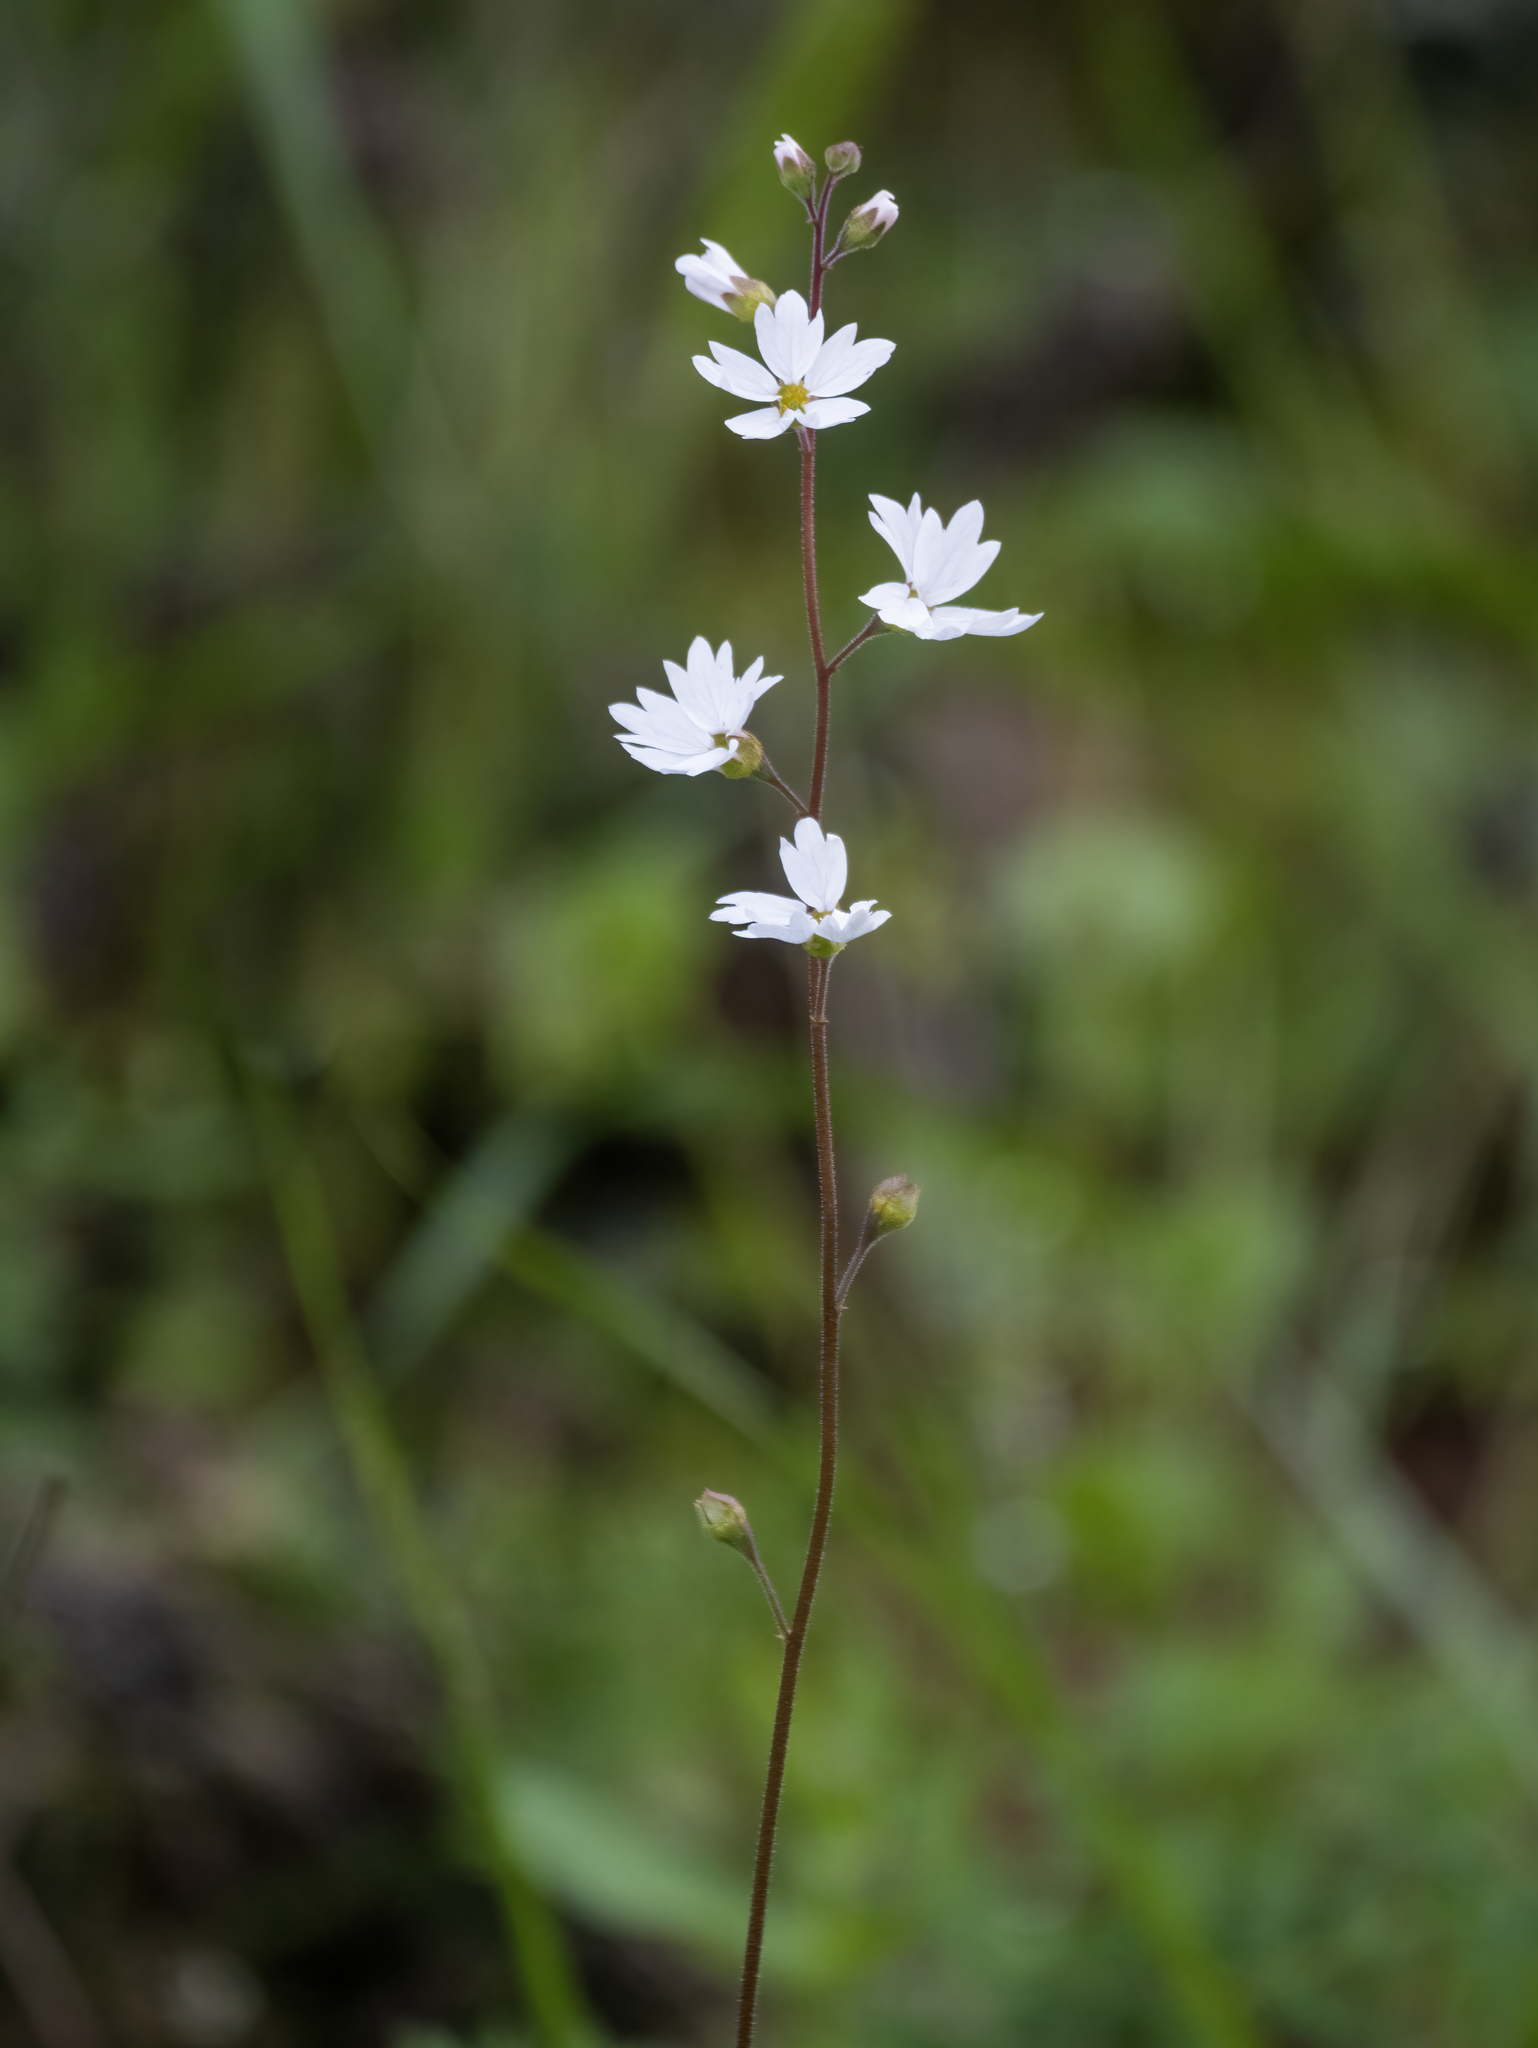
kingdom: Plantae
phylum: Tracheophyta
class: Magnoliopsida
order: Saxifragales
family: Saxifragaceae
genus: Lithophragma
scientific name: Lithophragma affine
